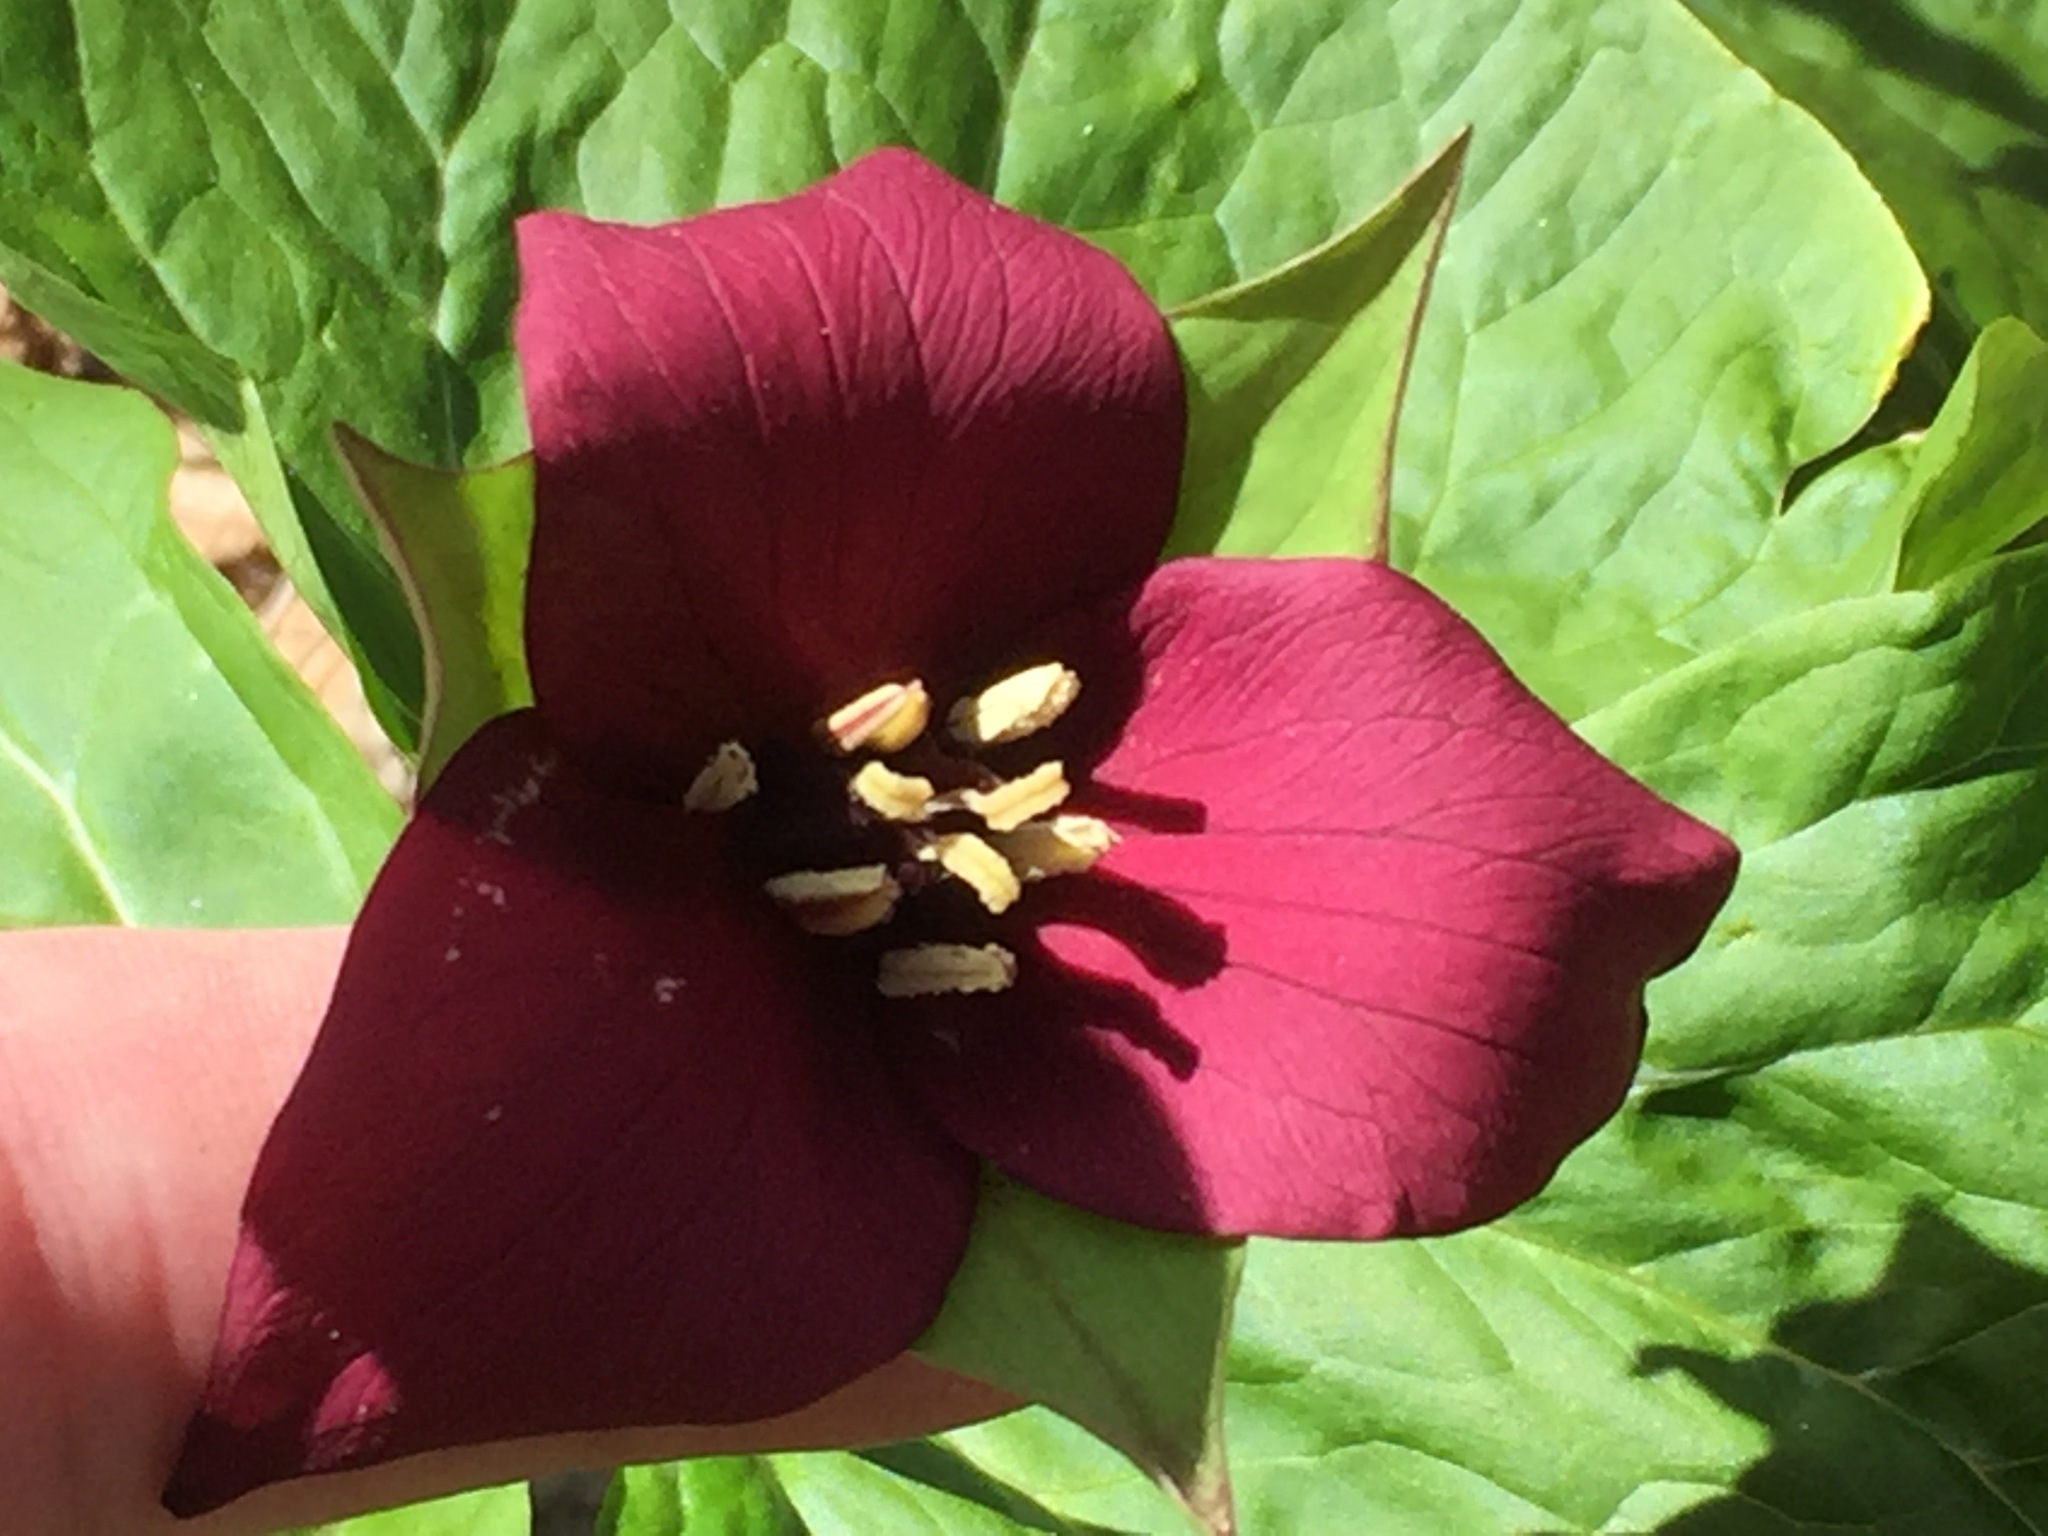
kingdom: Plantae
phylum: Tracheophyta
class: Liliopsida
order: Liliales
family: Melanthiaceae
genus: Trillium
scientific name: Trillium erectum
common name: Purple trillium
